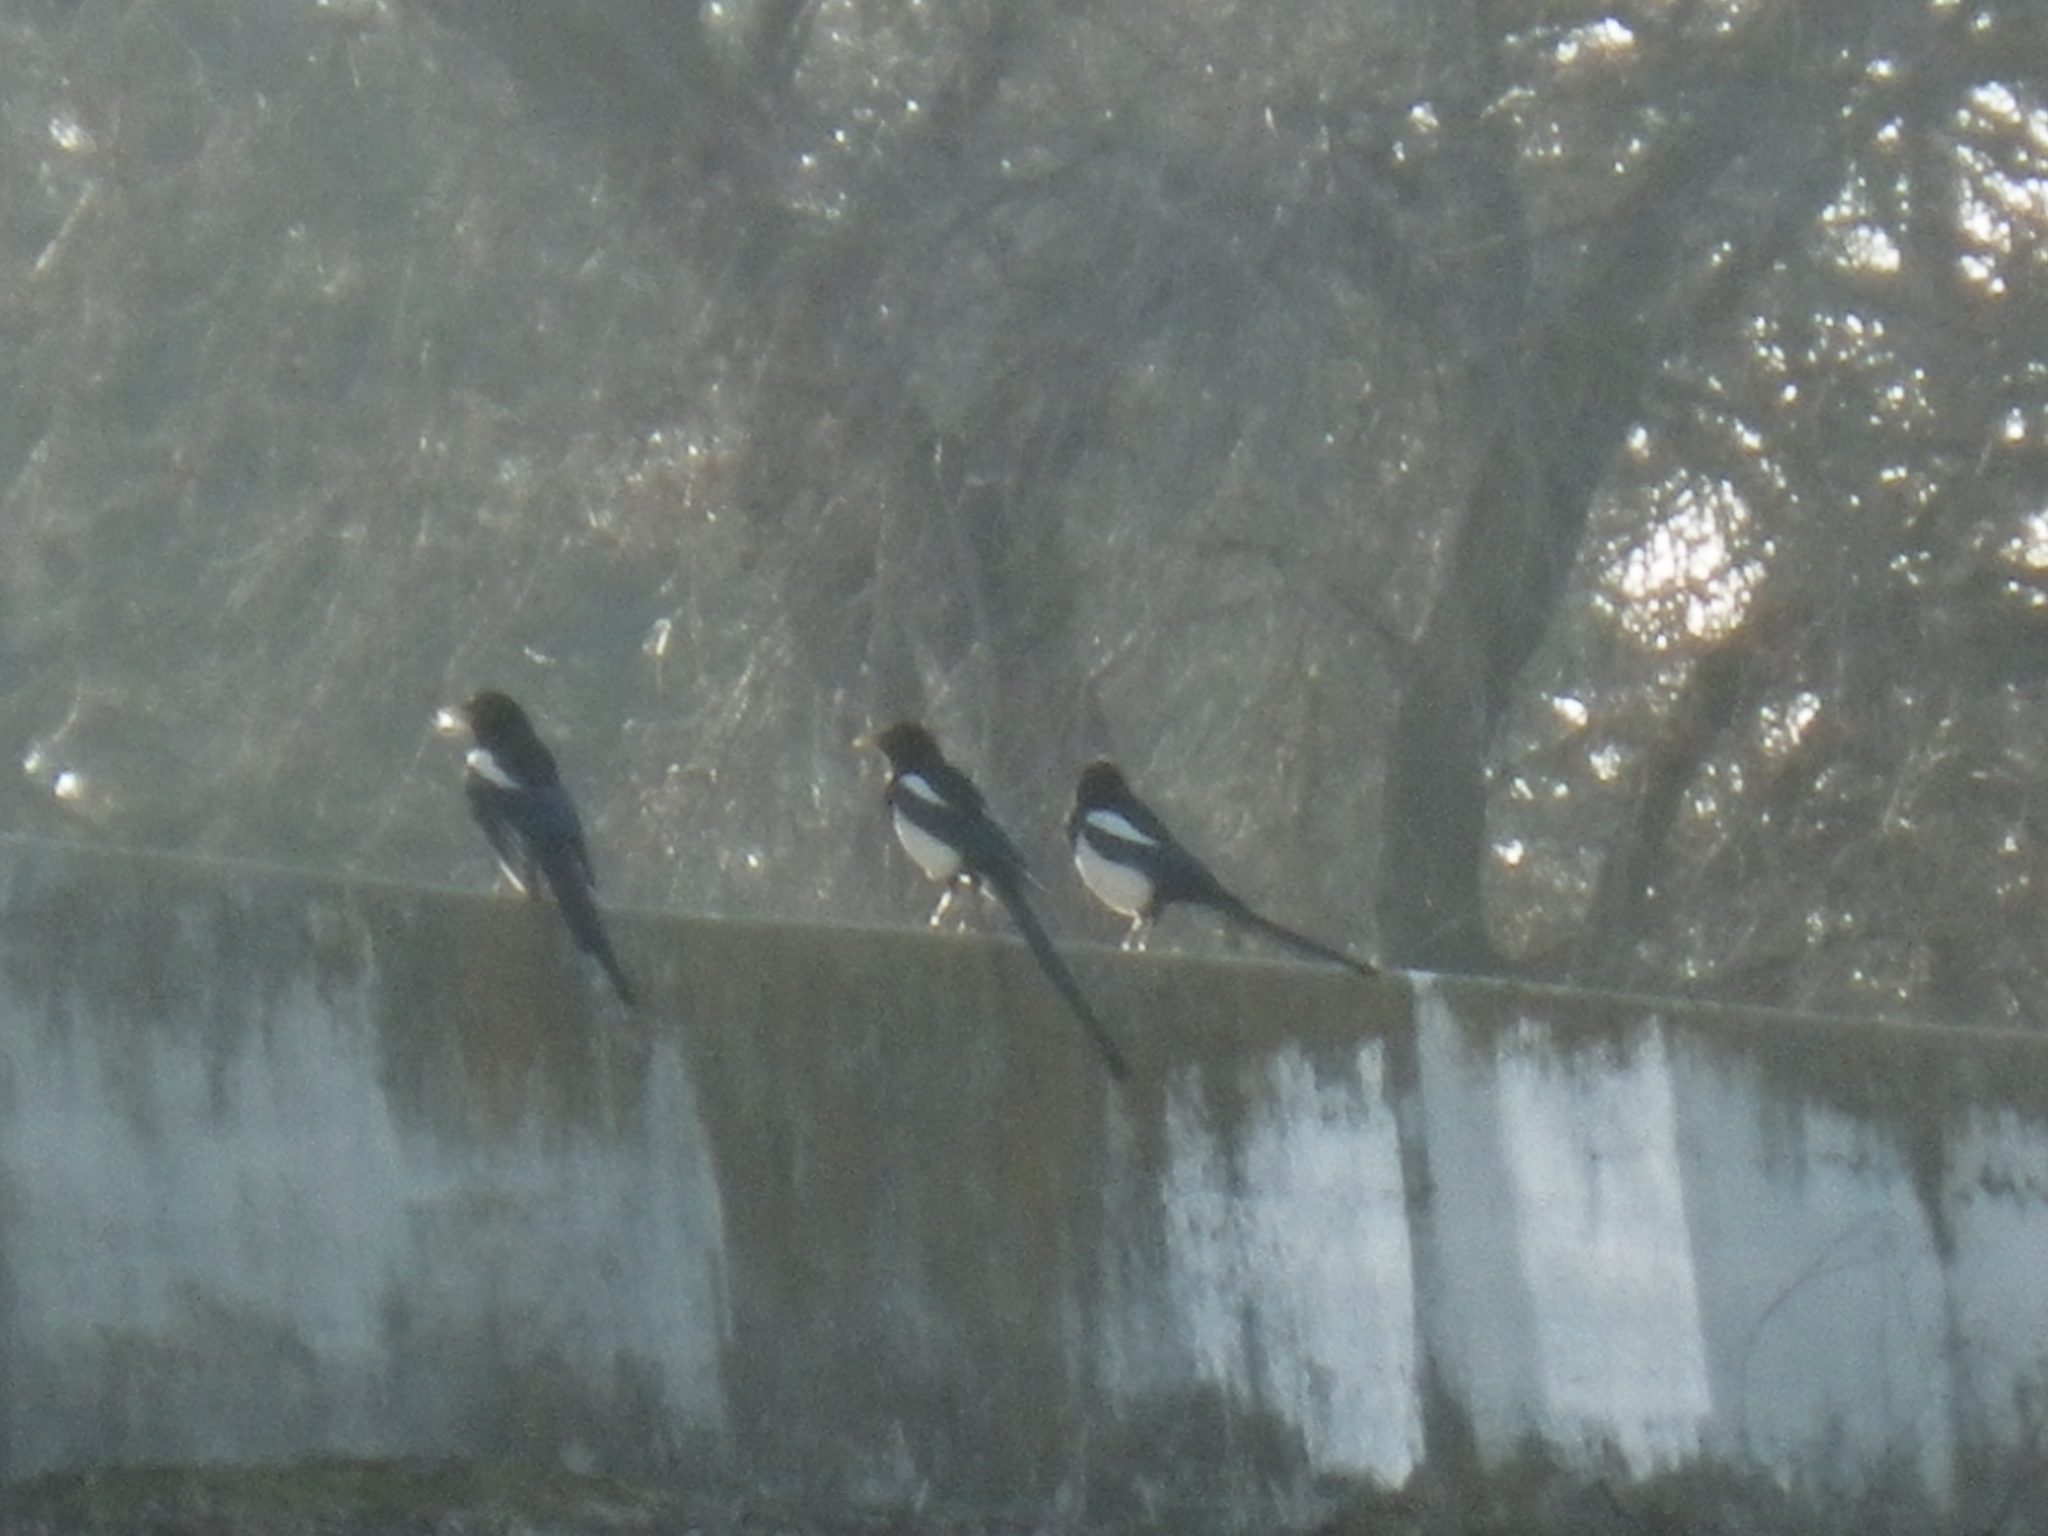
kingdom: Animalia
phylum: Chordata
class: Aves
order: Passeriformes
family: Corvidae
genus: Pica
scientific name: Pica nuttalli
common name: Yellow-billed magpie
